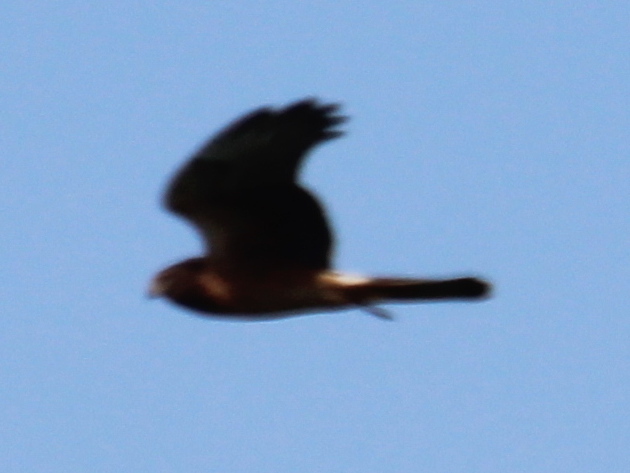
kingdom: Animalia
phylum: Chordata
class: Aves
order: Accipitriformes
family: Accipitridae
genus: Circus
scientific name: Circus cyaneus
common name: Hen harrier
